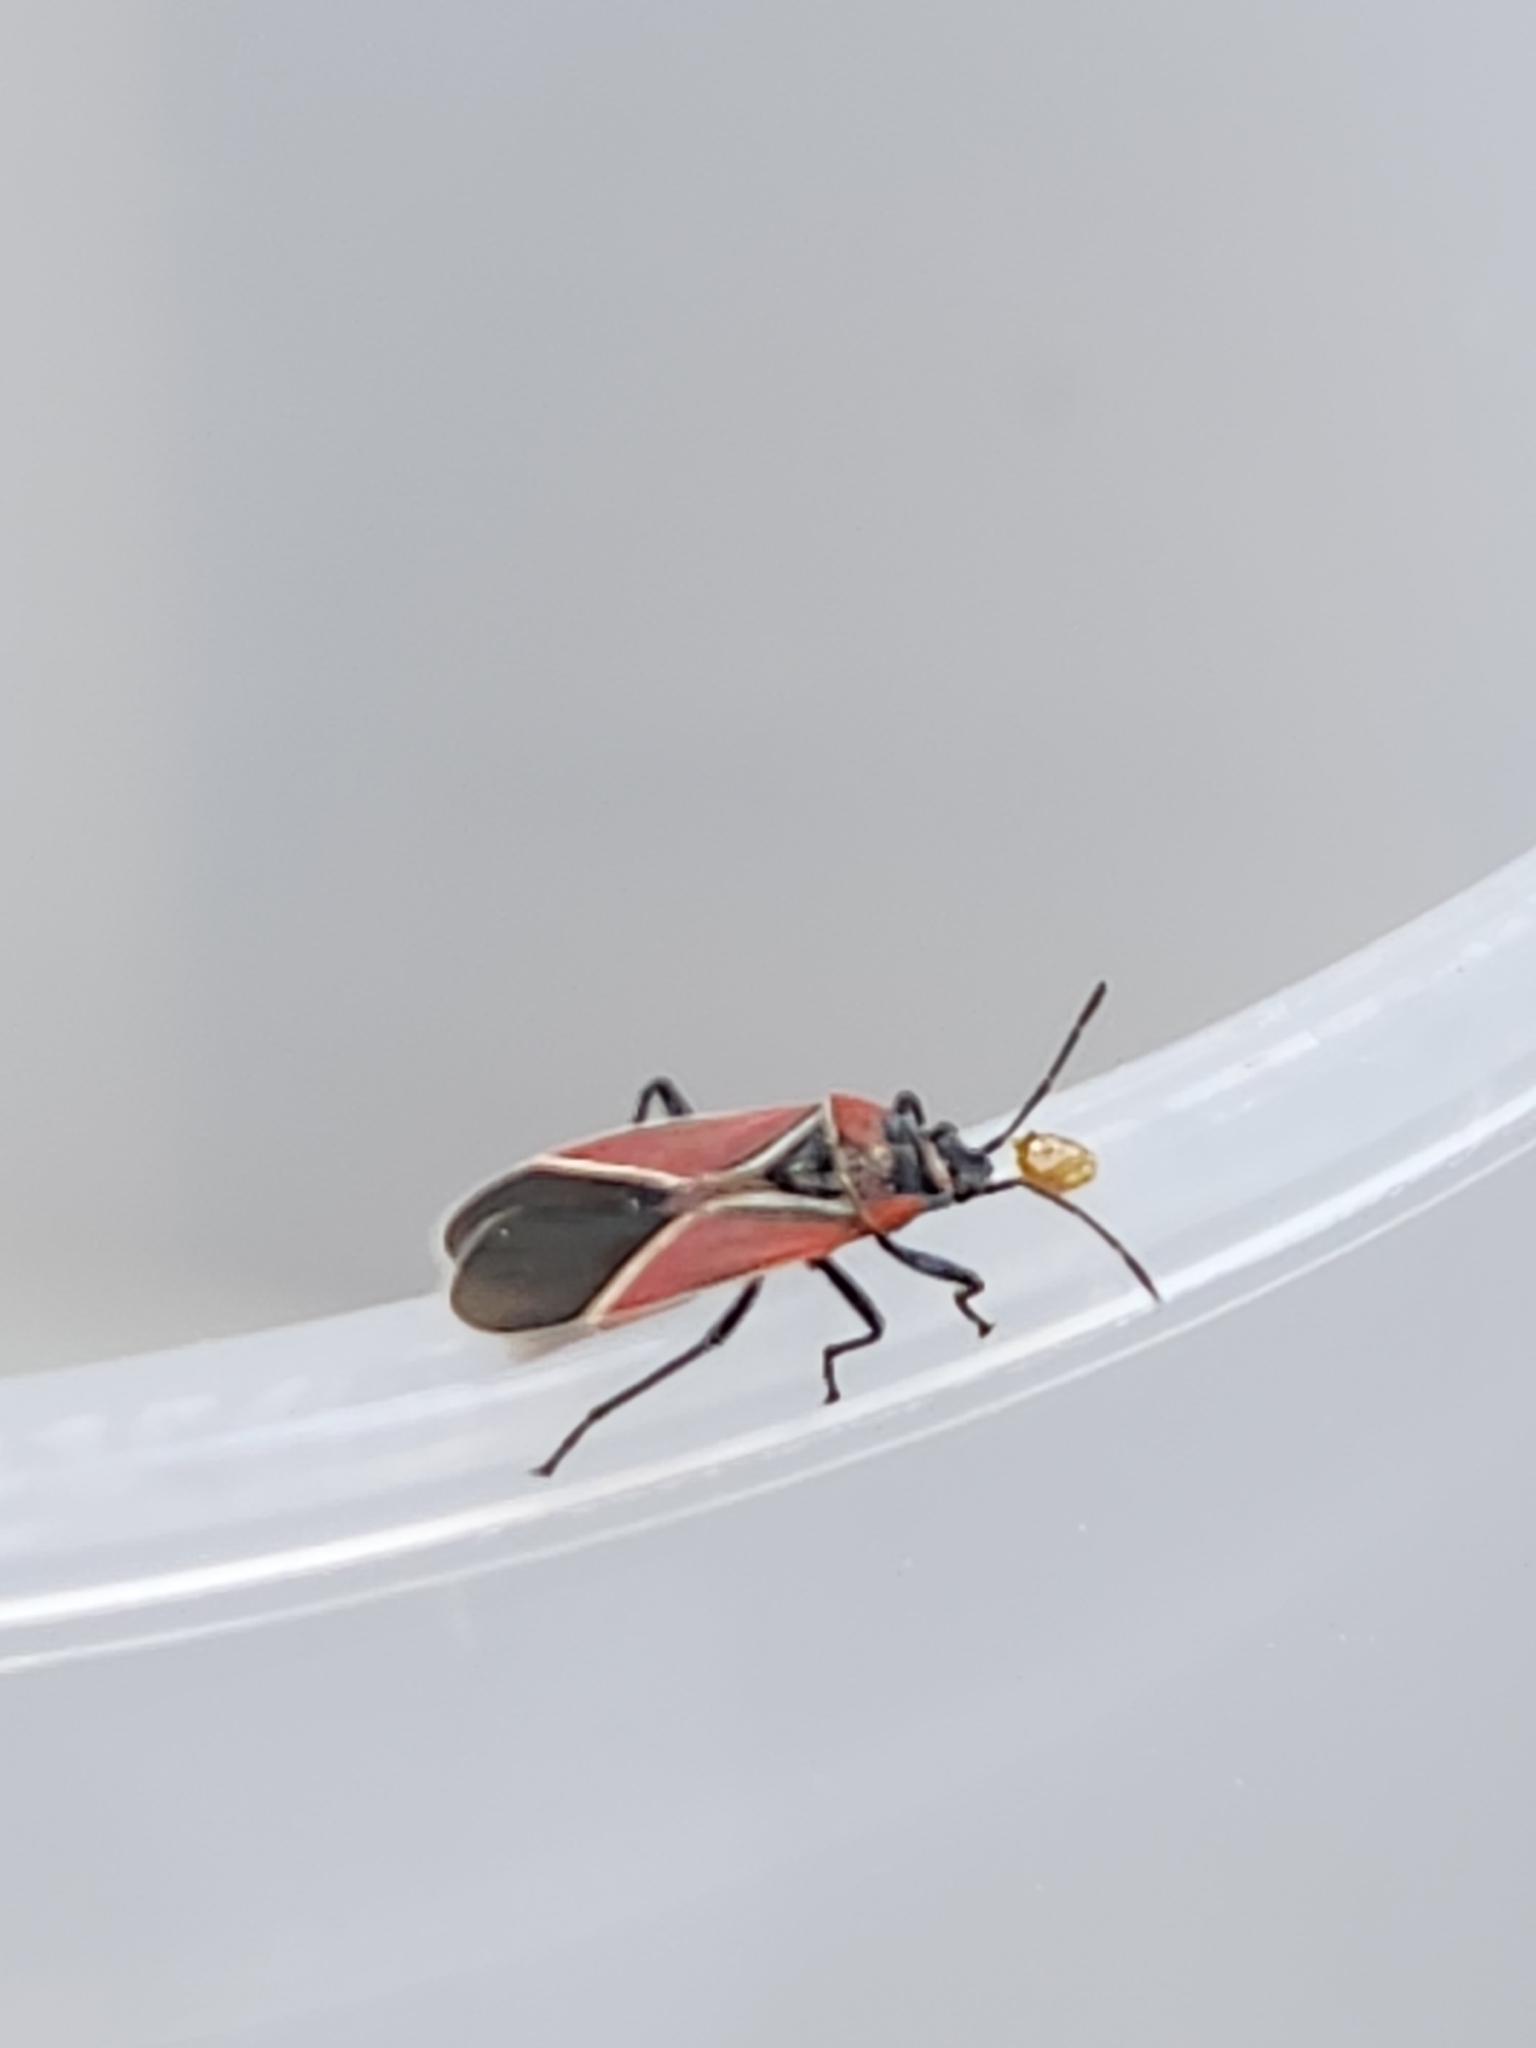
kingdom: Animalia
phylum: Arthropoda
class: Insecta
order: Hemiptera
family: Lygaeidae
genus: Neacoryphus
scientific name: Neacoryphus bicrucis
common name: Lygaeid bug
